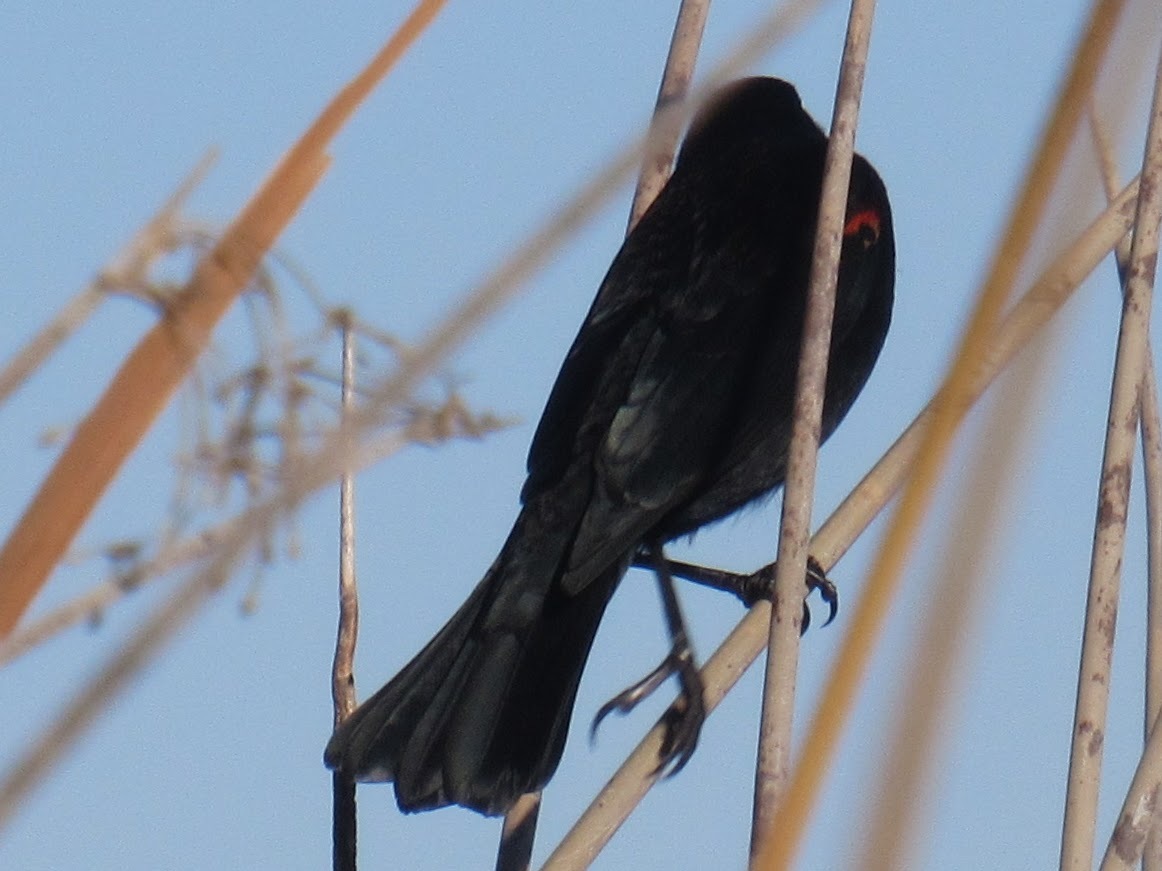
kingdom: Animalia
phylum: Chordata
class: Aves
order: Passeriformes
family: Icteridae
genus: Agelaius
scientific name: Agelaius phoeniceus
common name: Red-winged blackbird
